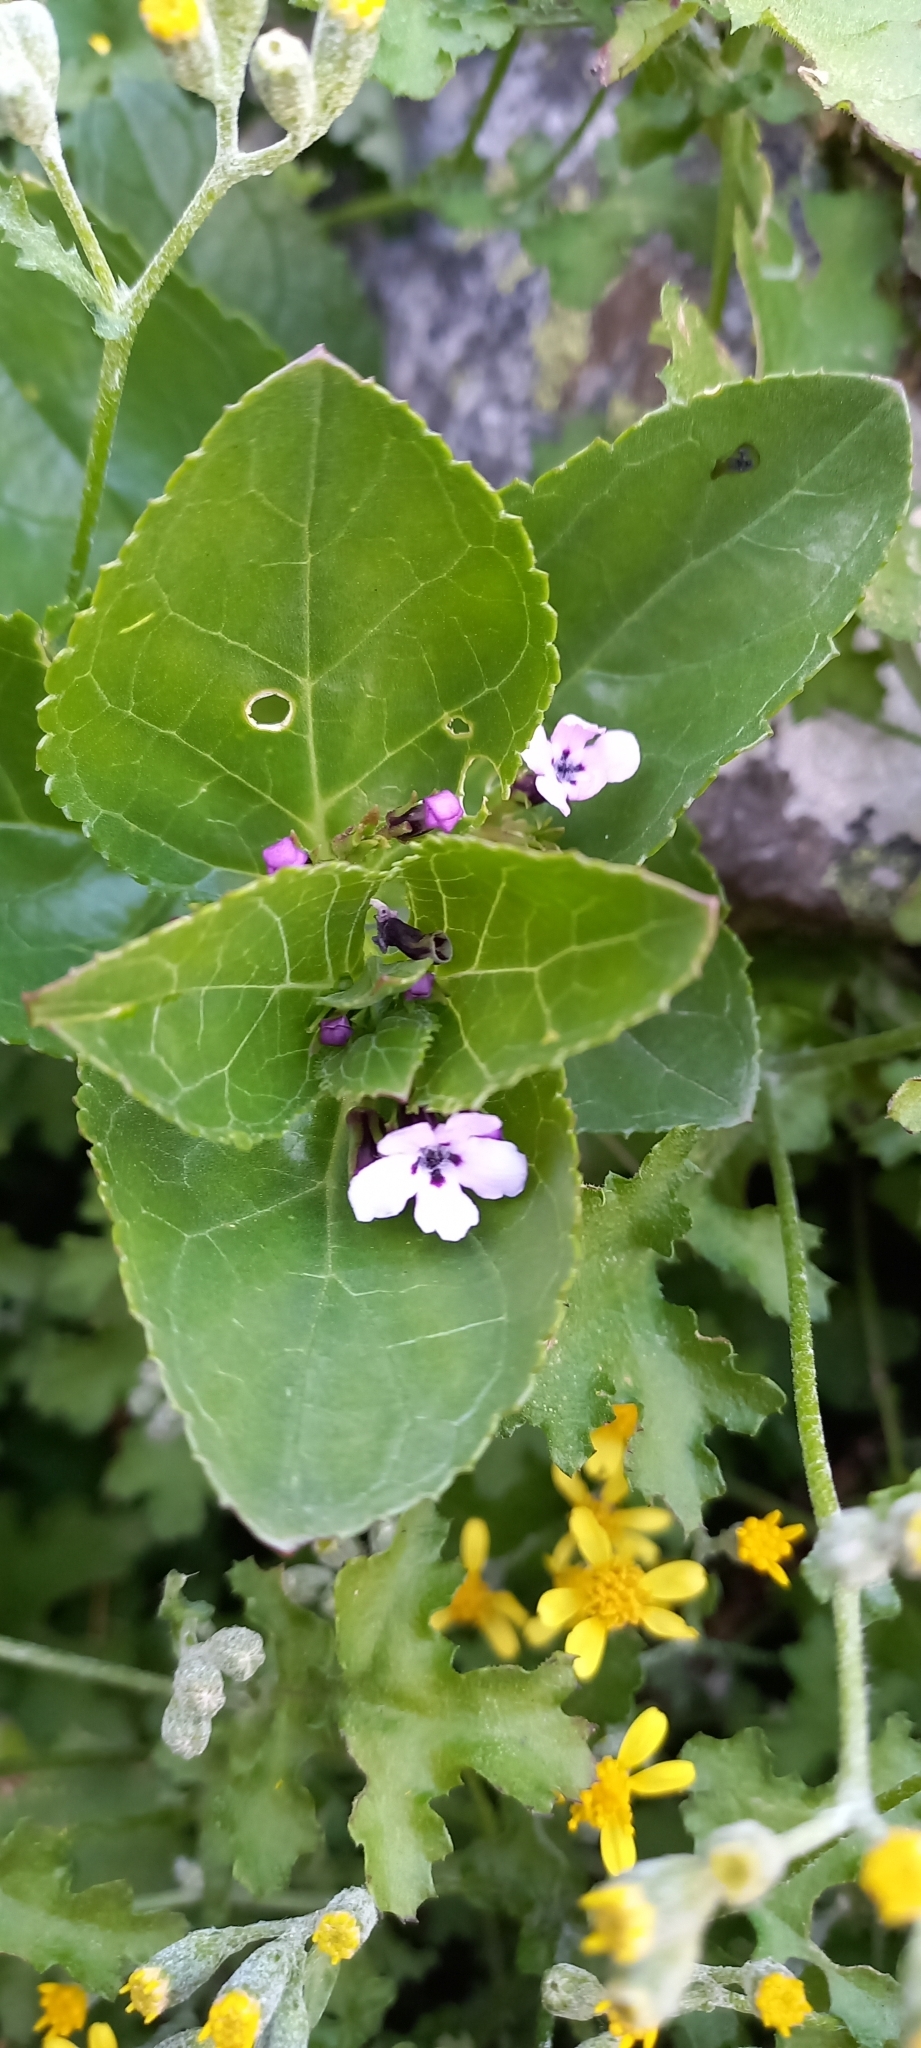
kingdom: Plantae
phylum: Tracheophyta
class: Magnoliopsida
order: Lamiales
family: Scrophulariaceae
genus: Teedia
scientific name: Teedia lucida
